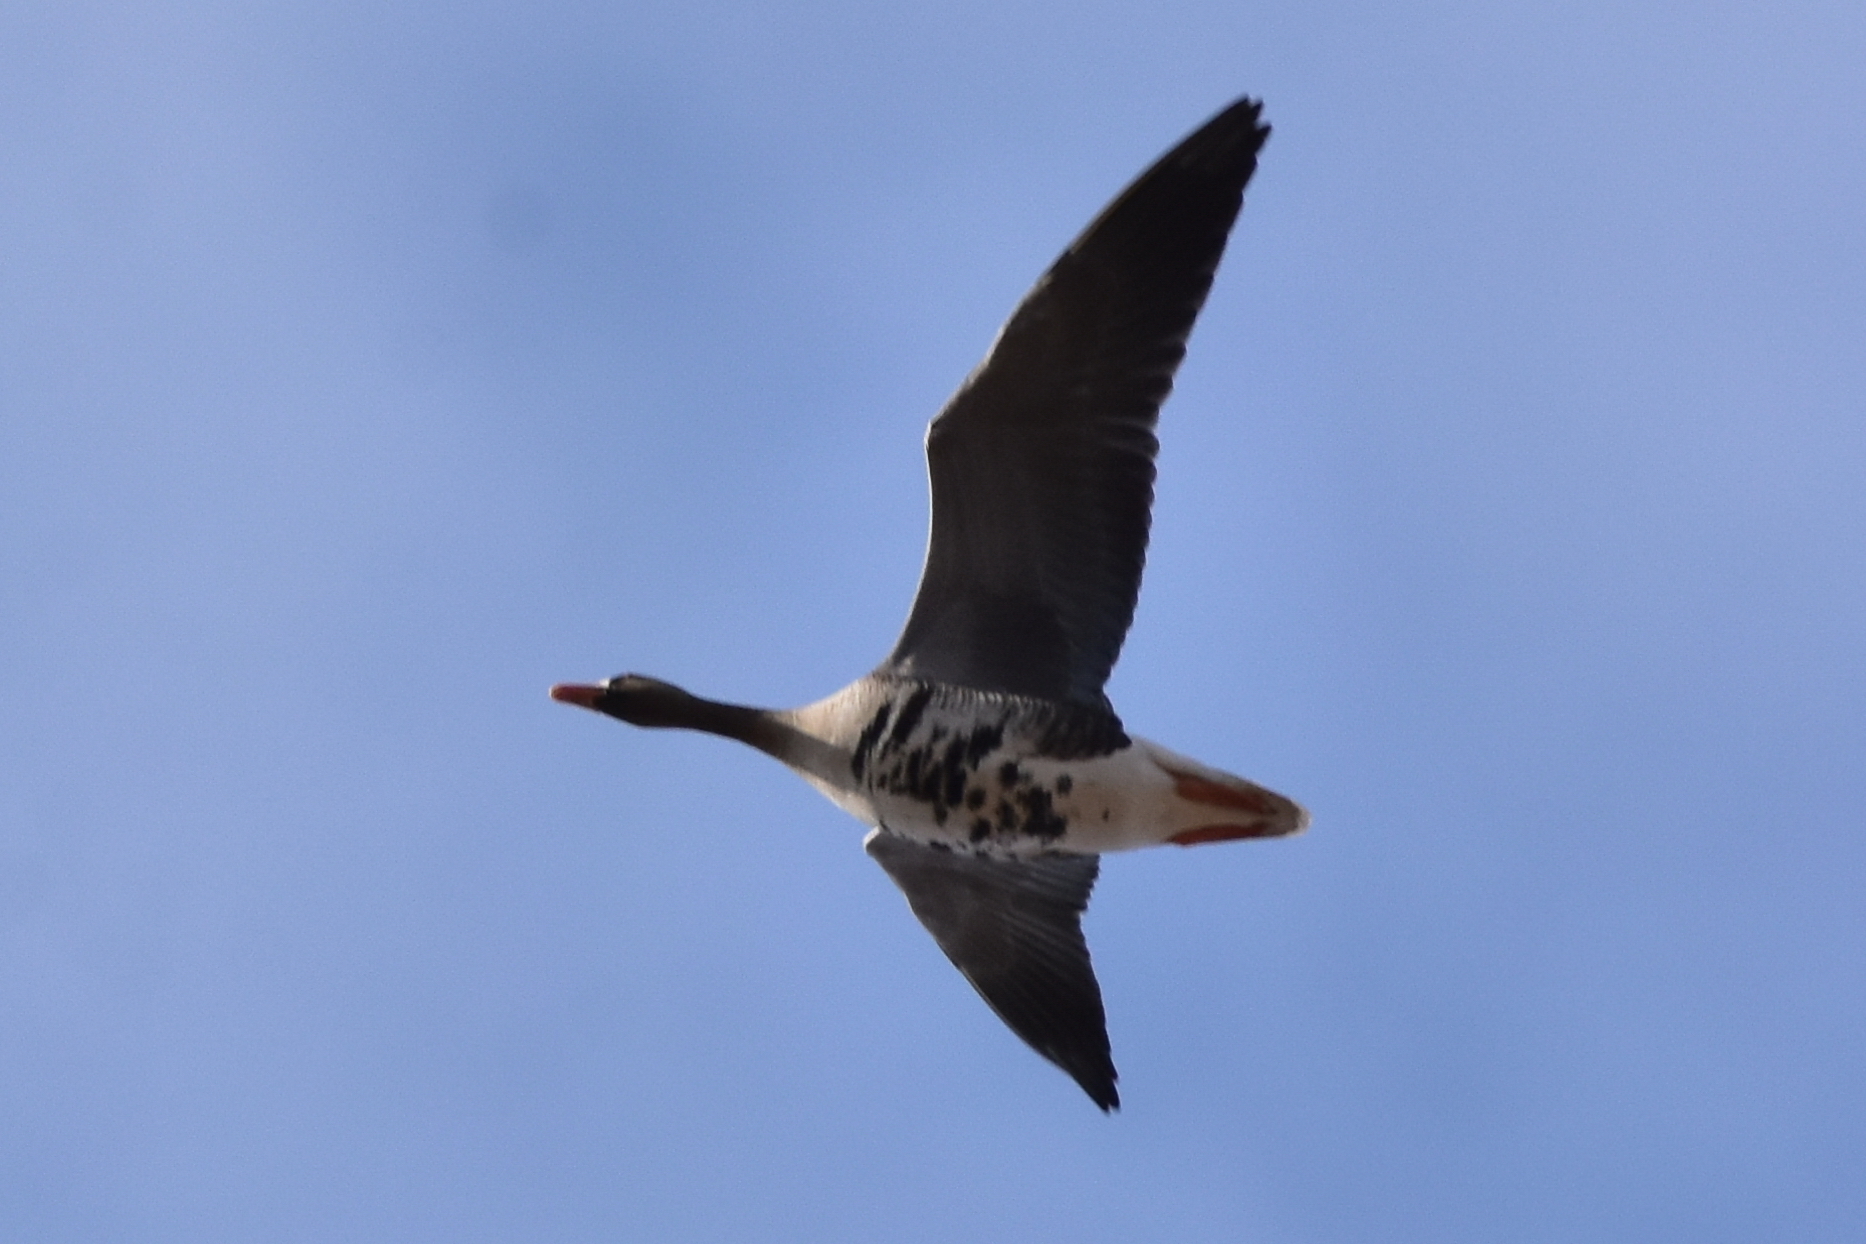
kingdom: Animalia
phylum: Chordata
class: Aves
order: Anseriformes
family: Anatidae
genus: Anser
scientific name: Anser albifrons
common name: Greater white-fronted goose
